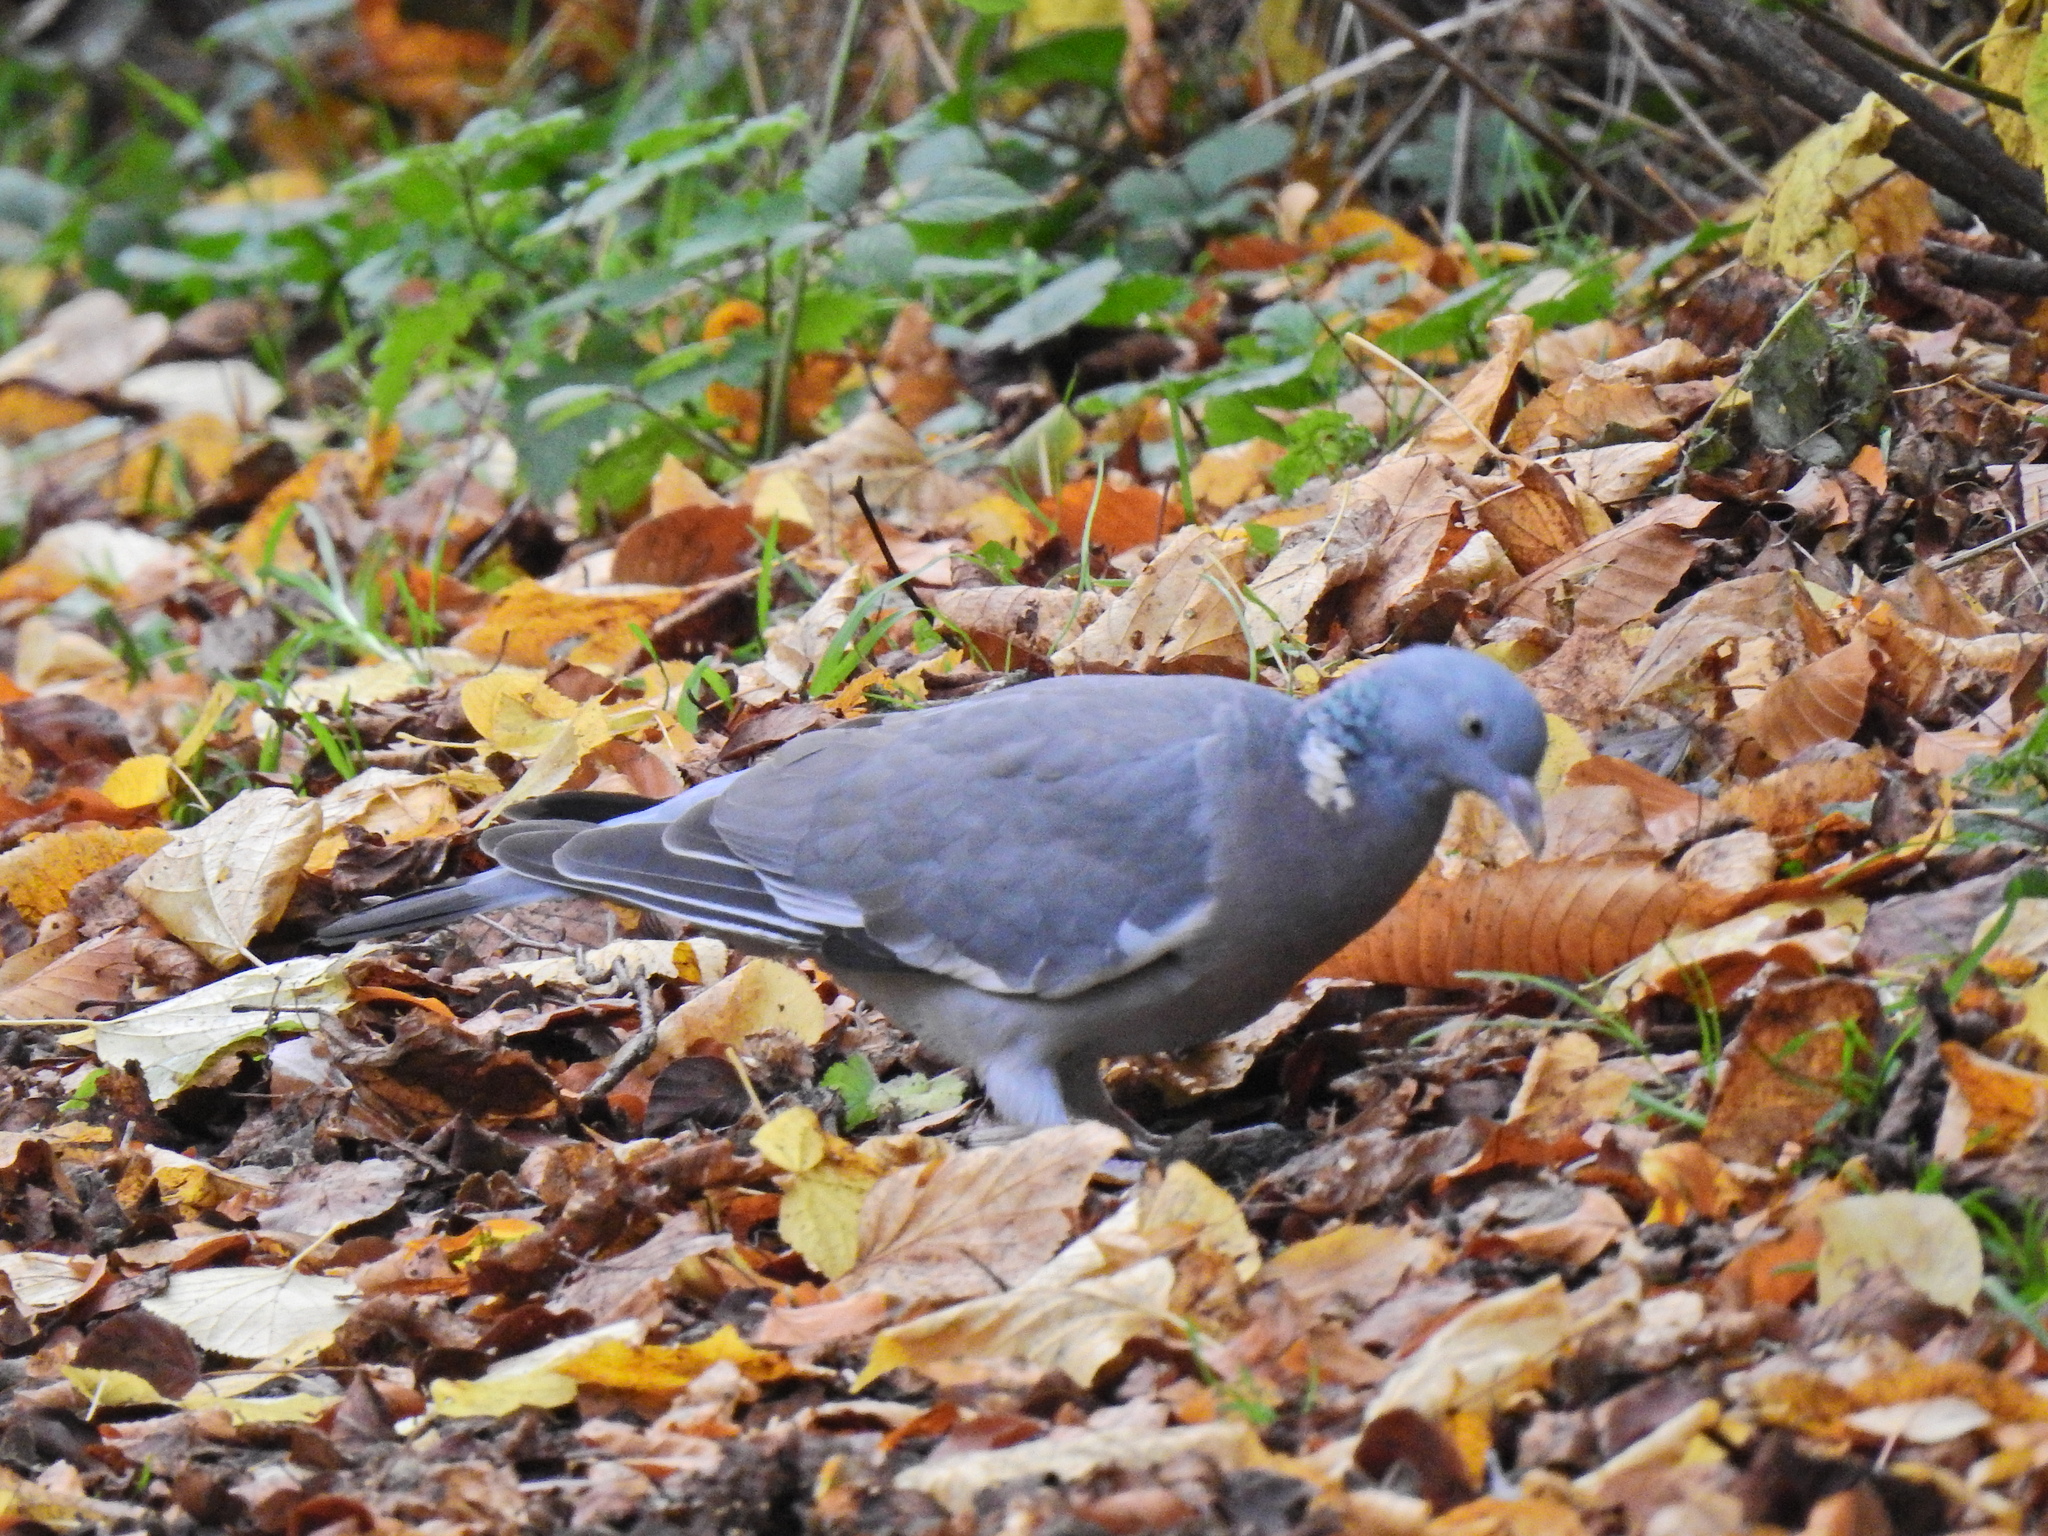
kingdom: Animalia
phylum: Chordata
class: Aves
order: Columbiformes
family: Columbidae
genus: Columba
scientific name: Columba palumbus
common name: Common wood pigeon
